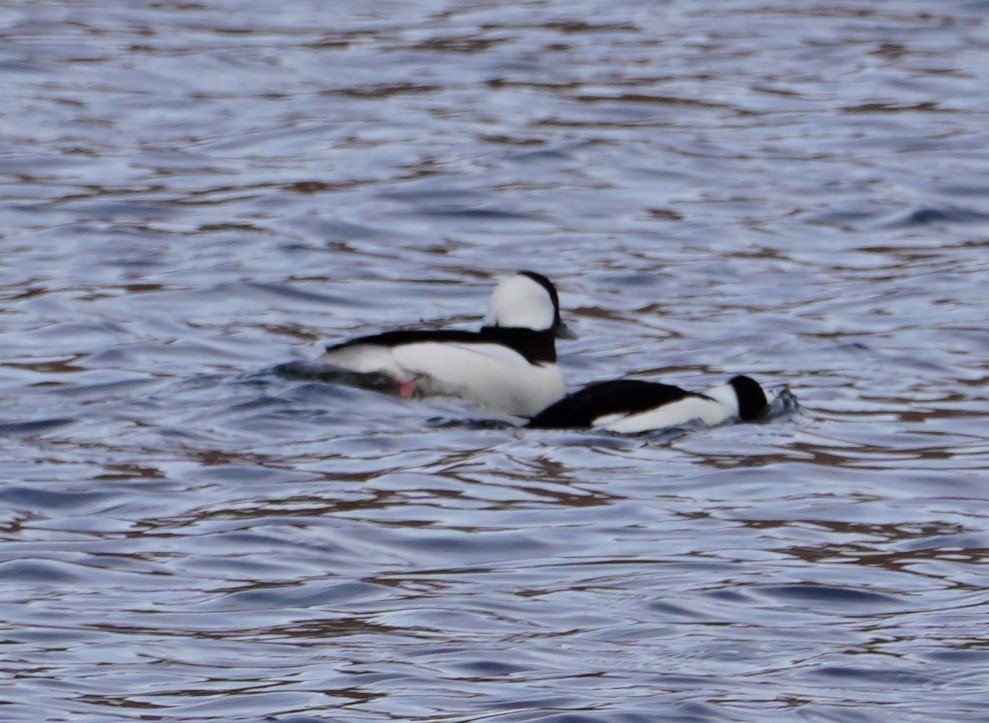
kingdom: Animalia
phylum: Chordata
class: Aves
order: Anseriformes
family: Anatidae
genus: Bucephala
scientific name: Bucephala albeola
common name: Bufflehead
